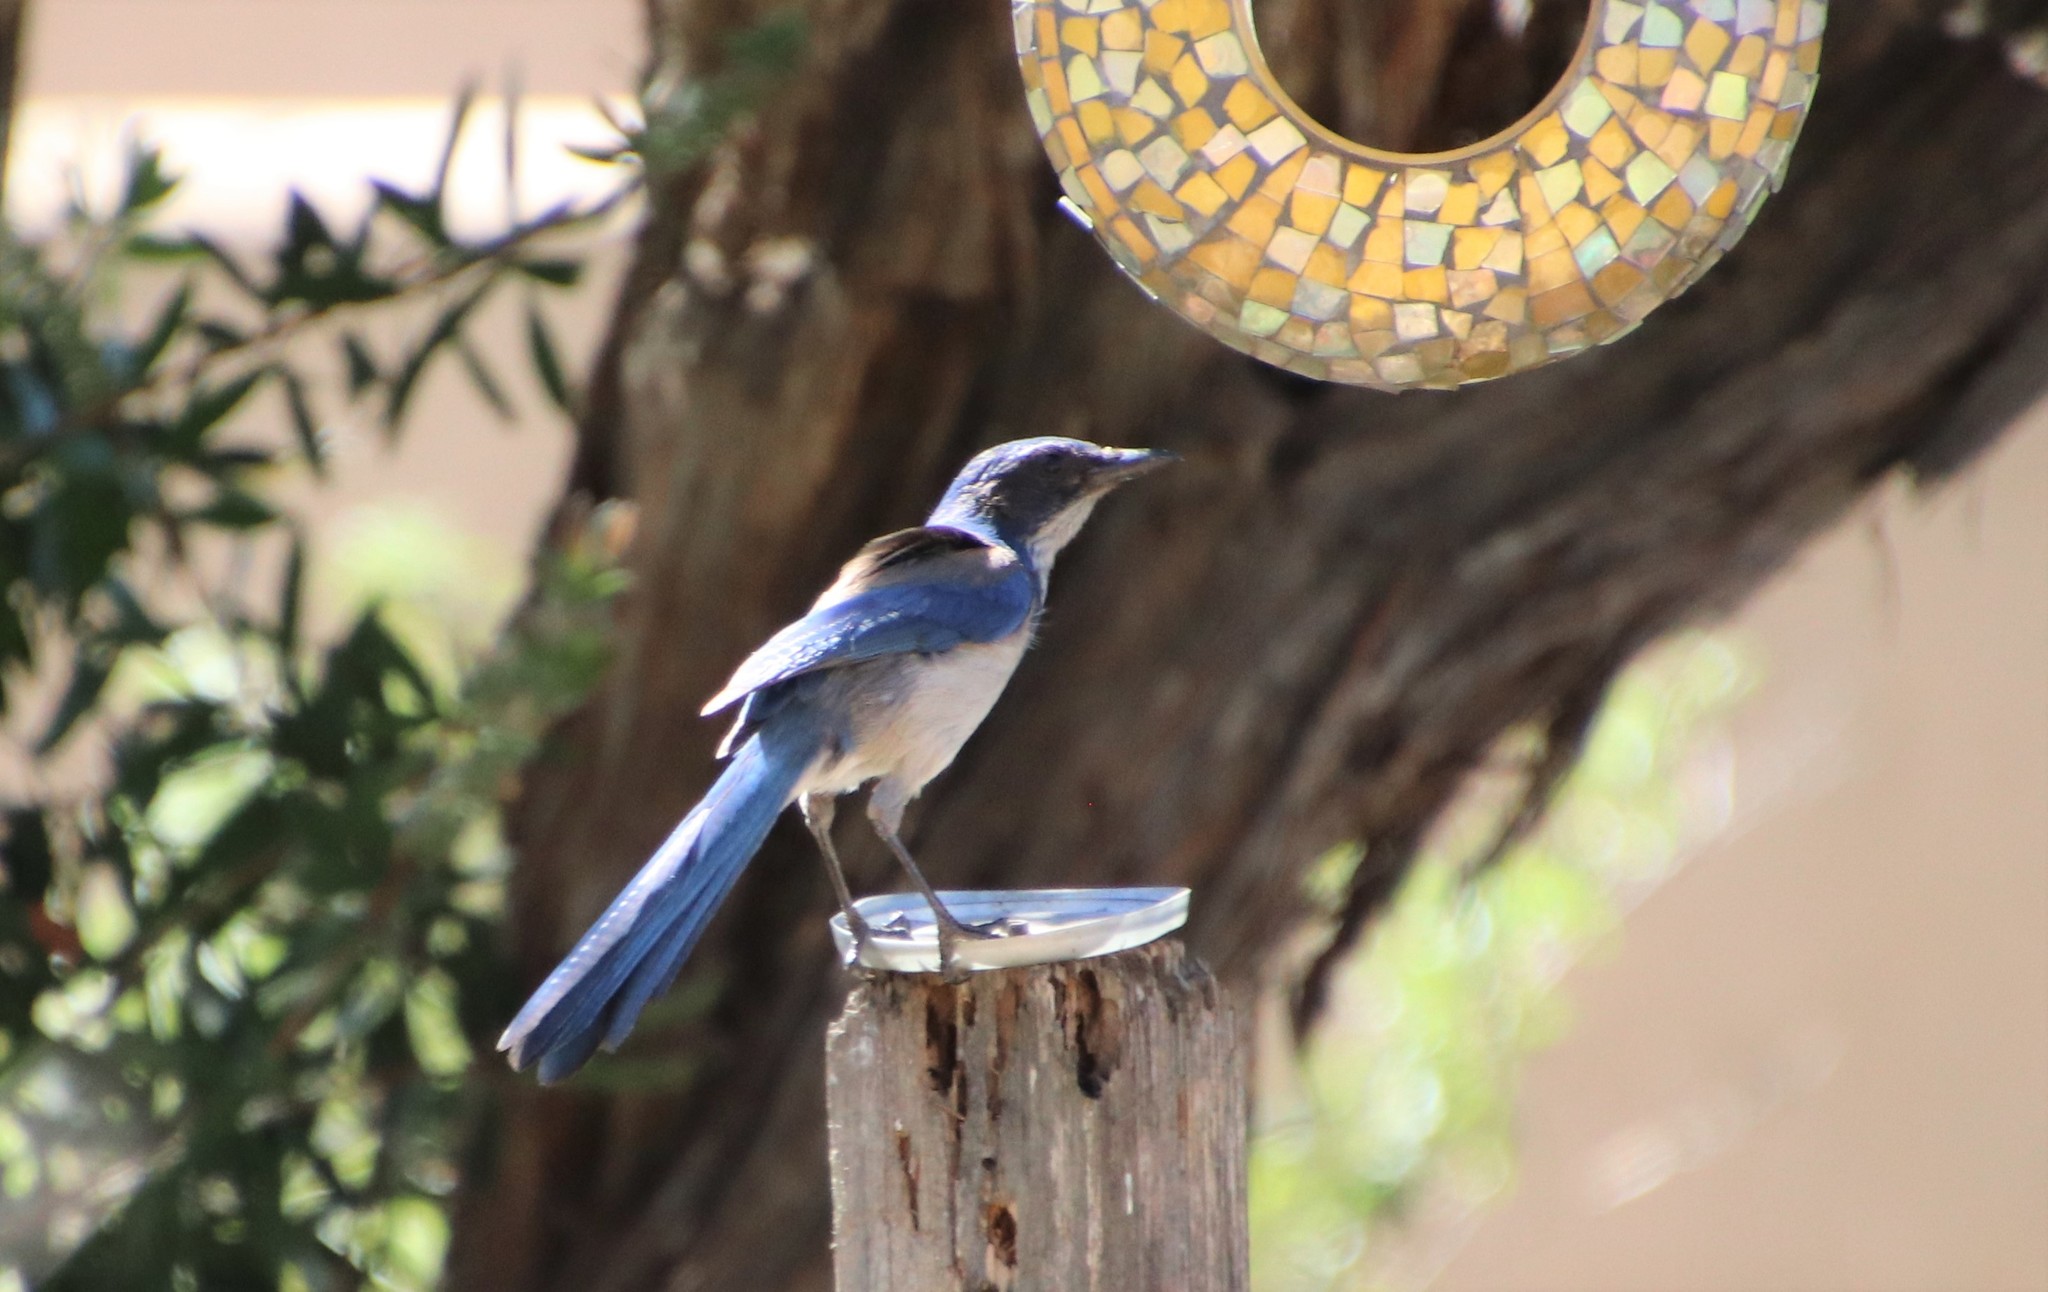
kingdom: Animalia
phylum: Chordata
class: Aves
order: Passeriformes
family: Corvidae
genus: Aphelocoma
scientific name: Aphelocoma californica
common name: California scrub-jay
